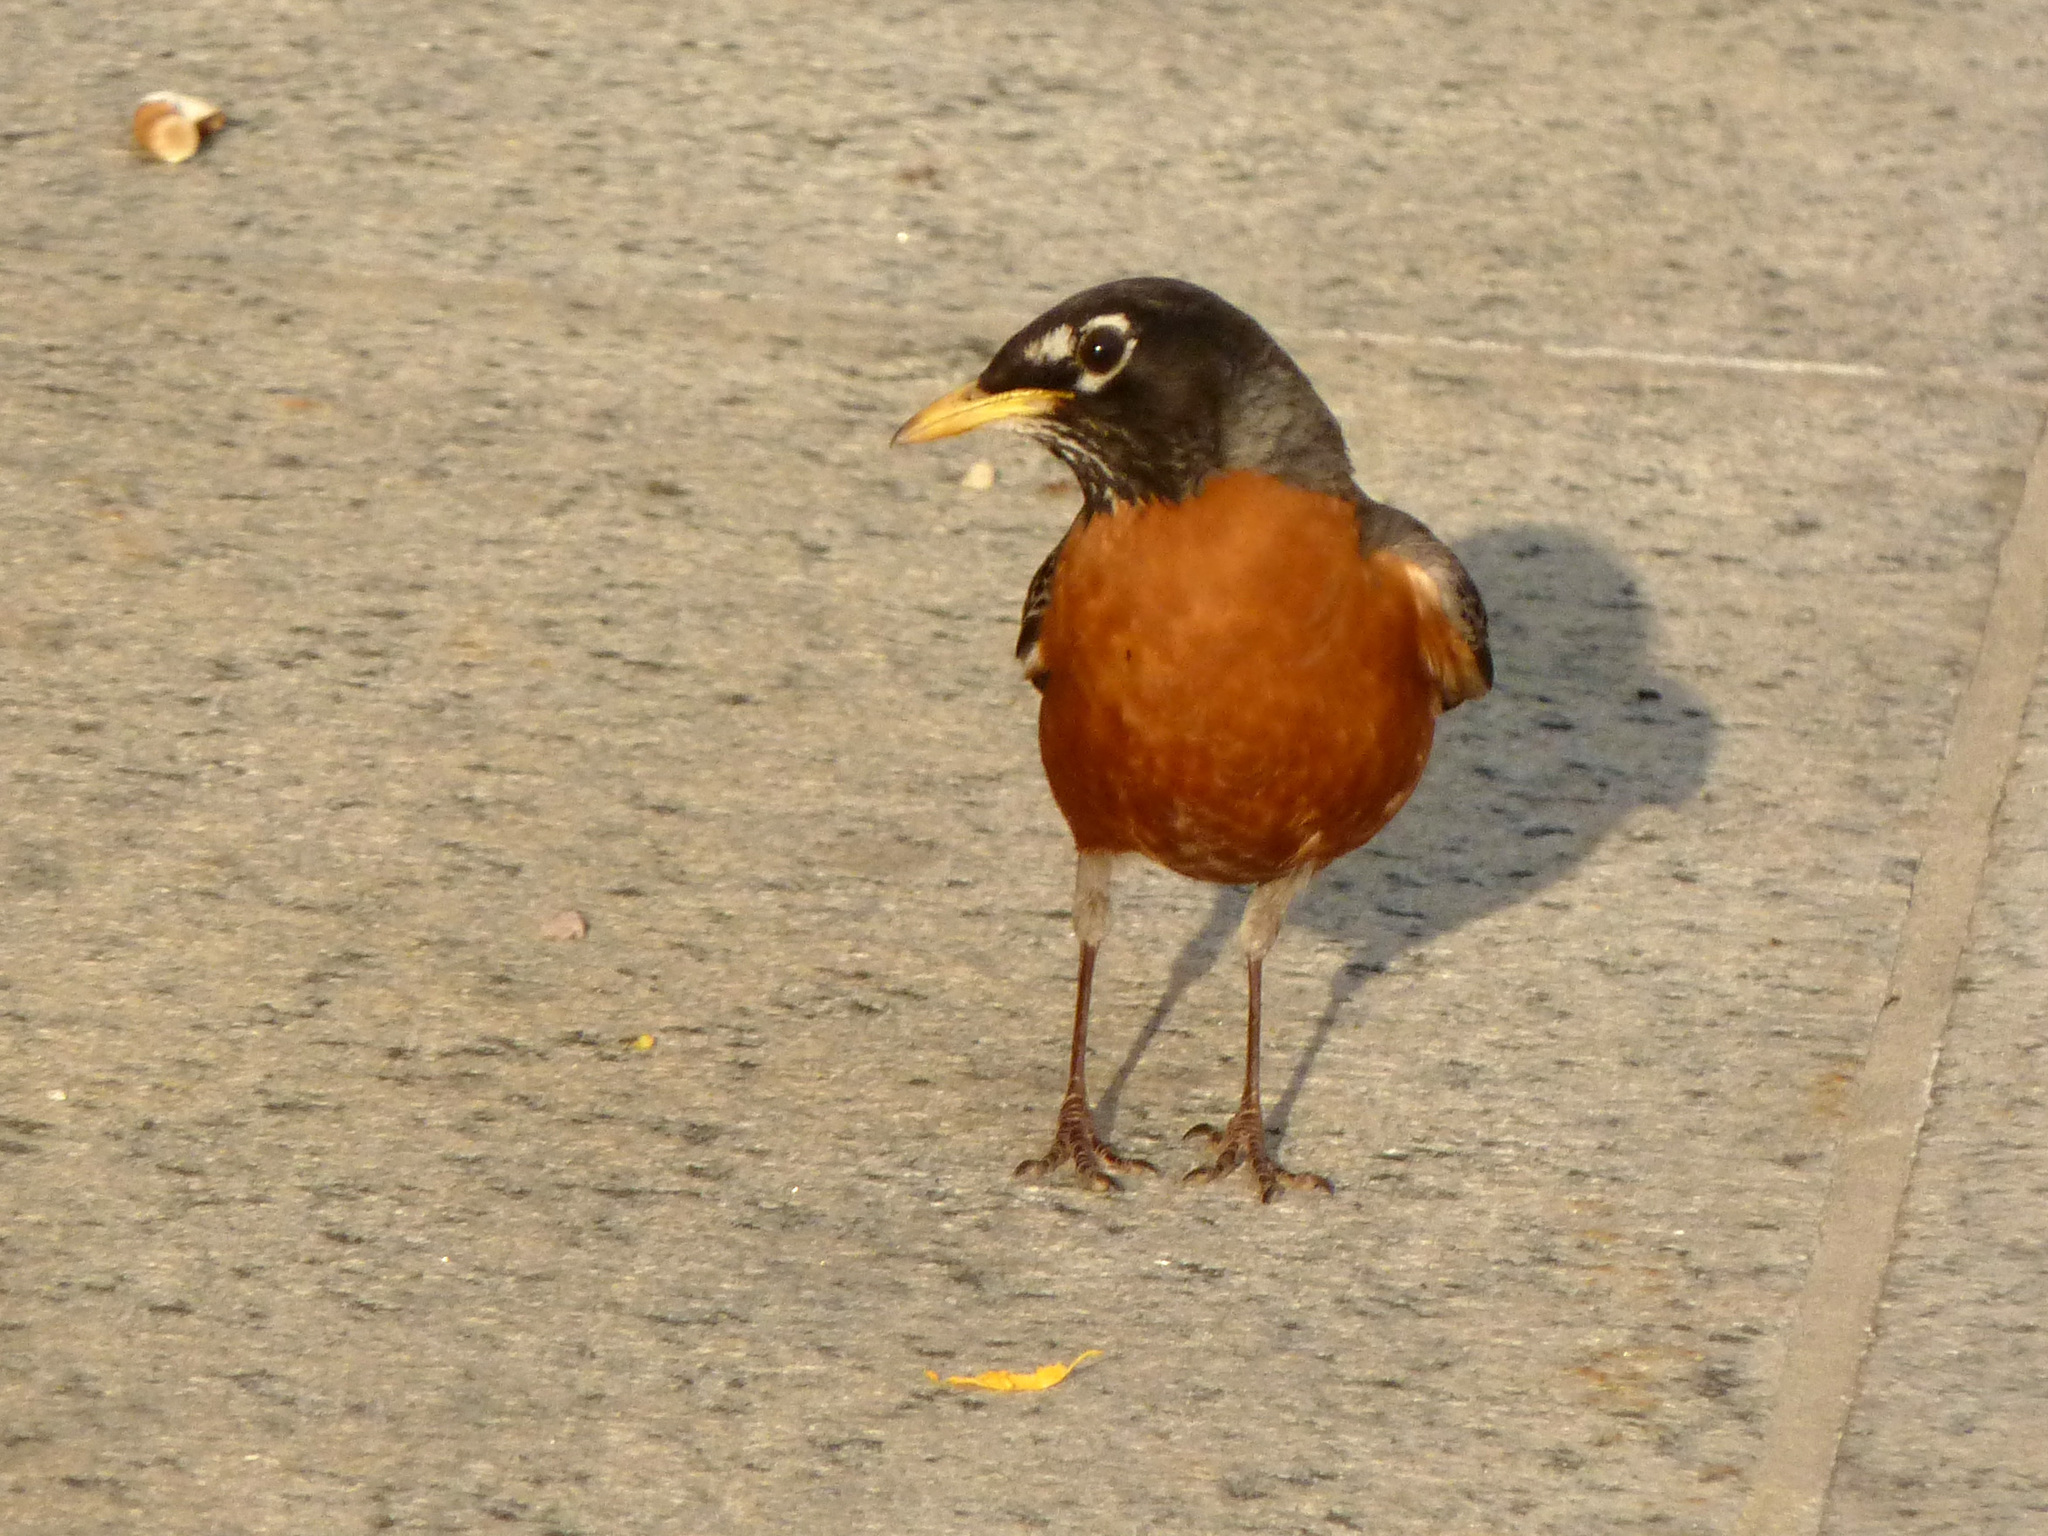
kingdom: Animalia
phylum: Chordata
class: Aves
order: Passeriformes
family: Turdidae
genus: Turdus
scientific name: Turdus migratorius
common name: American robin
